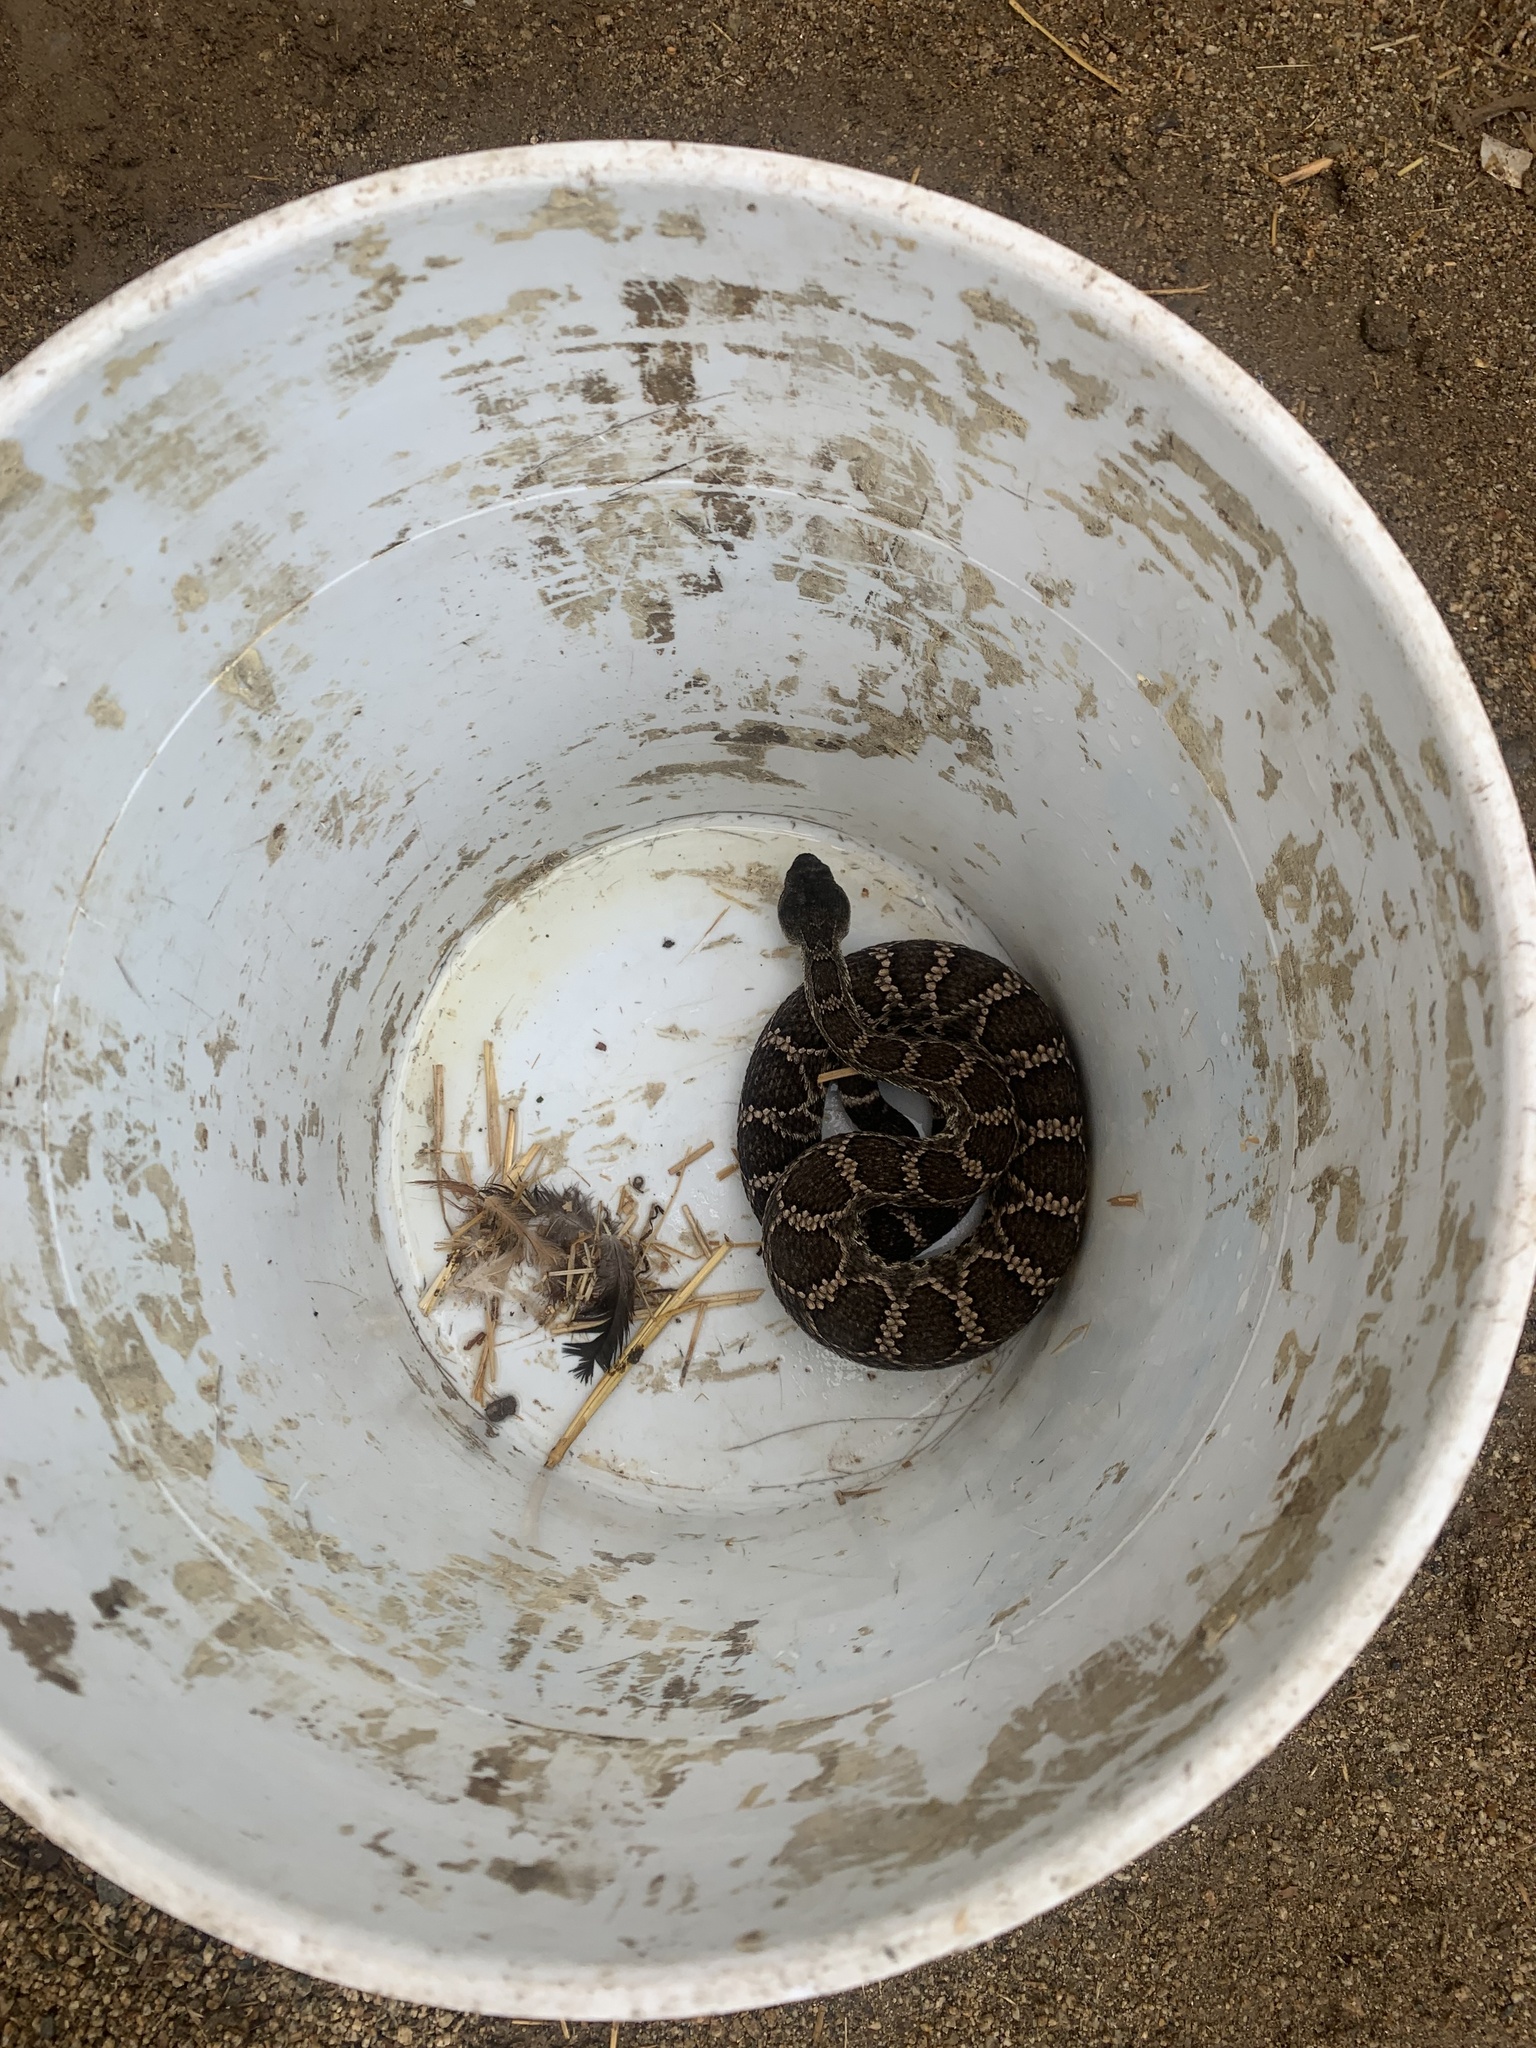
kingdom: Animalia
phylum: Chordata
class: Squamata
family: Viperidae
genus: Crotalus
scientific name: Crotalus oreganus
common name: Abyssus
